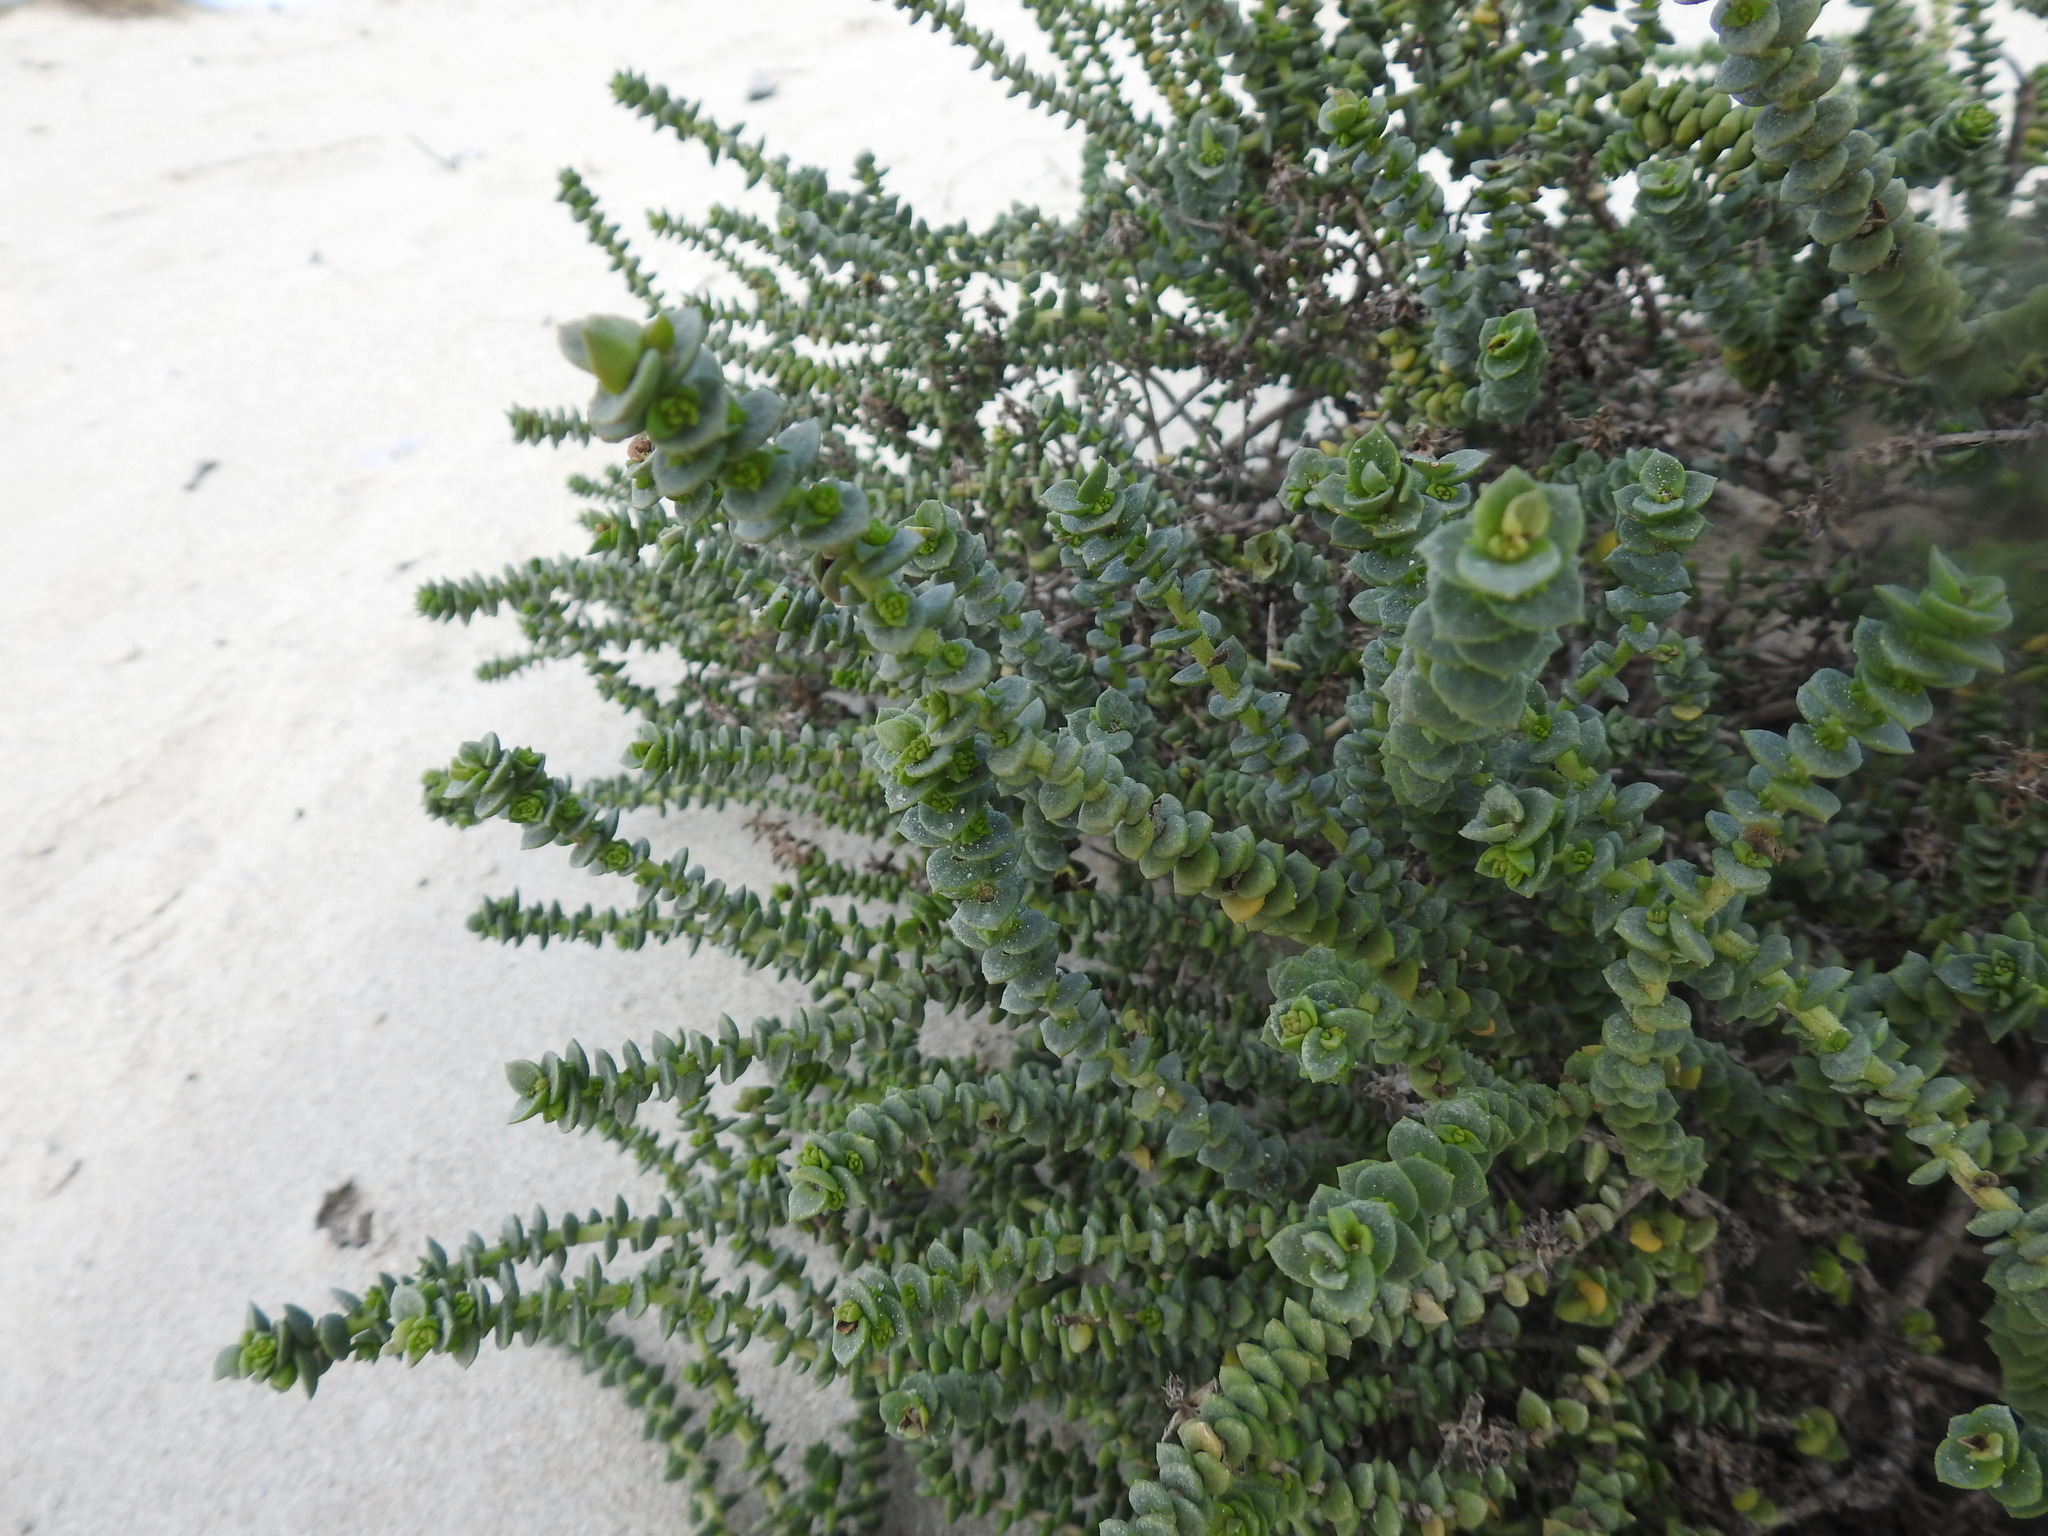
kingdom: Plantae
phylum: Tracheophyta
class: Magnoliopsida
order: Lamiales
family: Scrophulariaceae
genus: Hebenstretia
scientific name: Hebenstretia cordata
